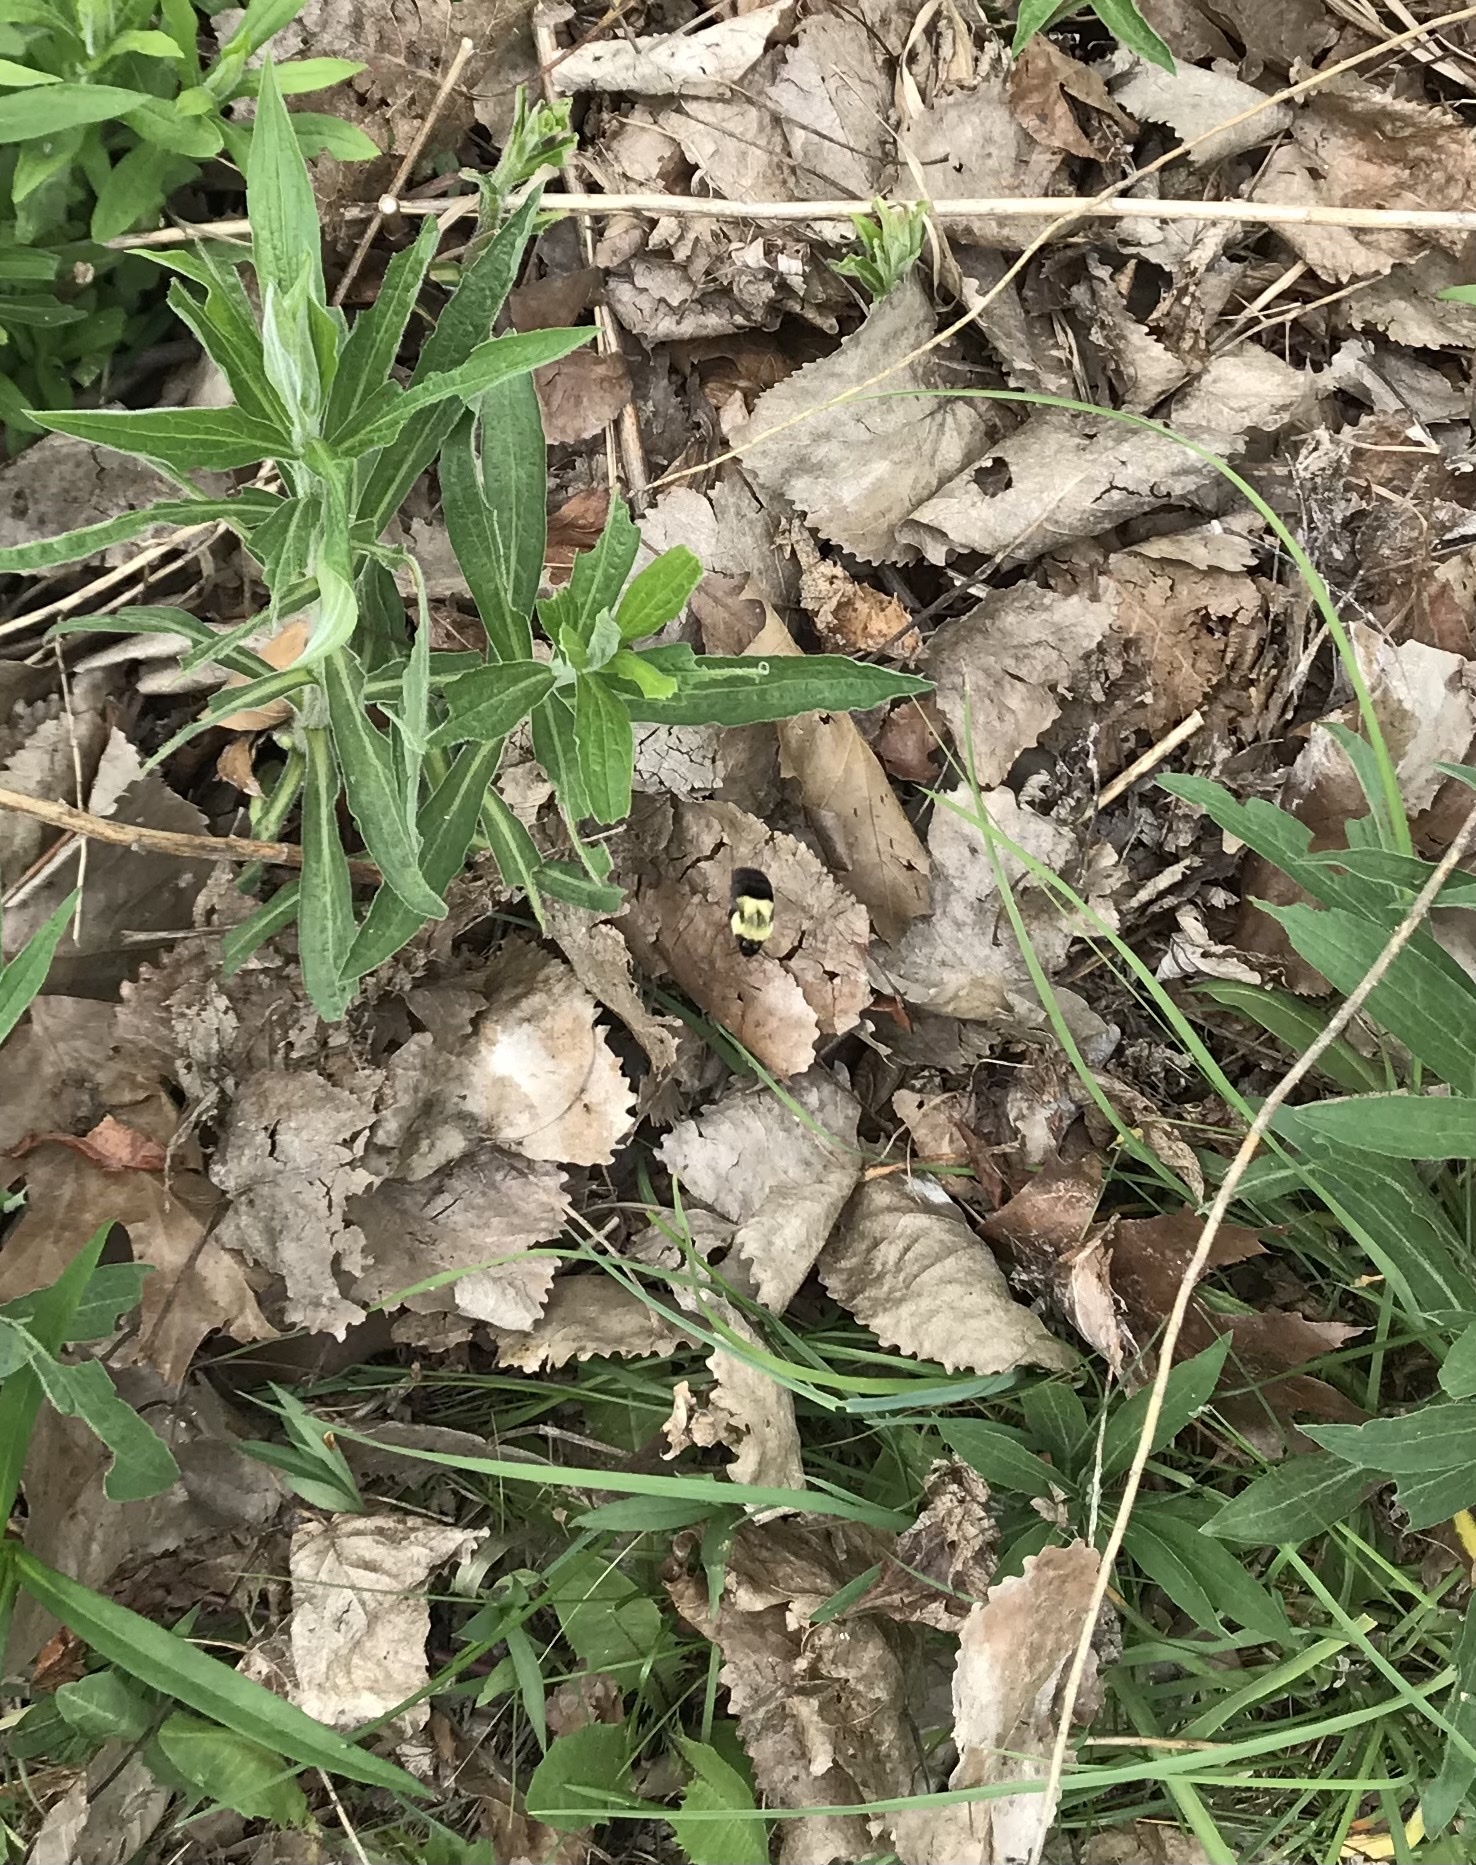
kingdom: Animalia
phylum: Arthropoda
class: Insecta
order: Hymenoptera
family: Apidae
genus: Bombus
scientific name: Bombus impatiens
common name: Common eastern bumble bee
